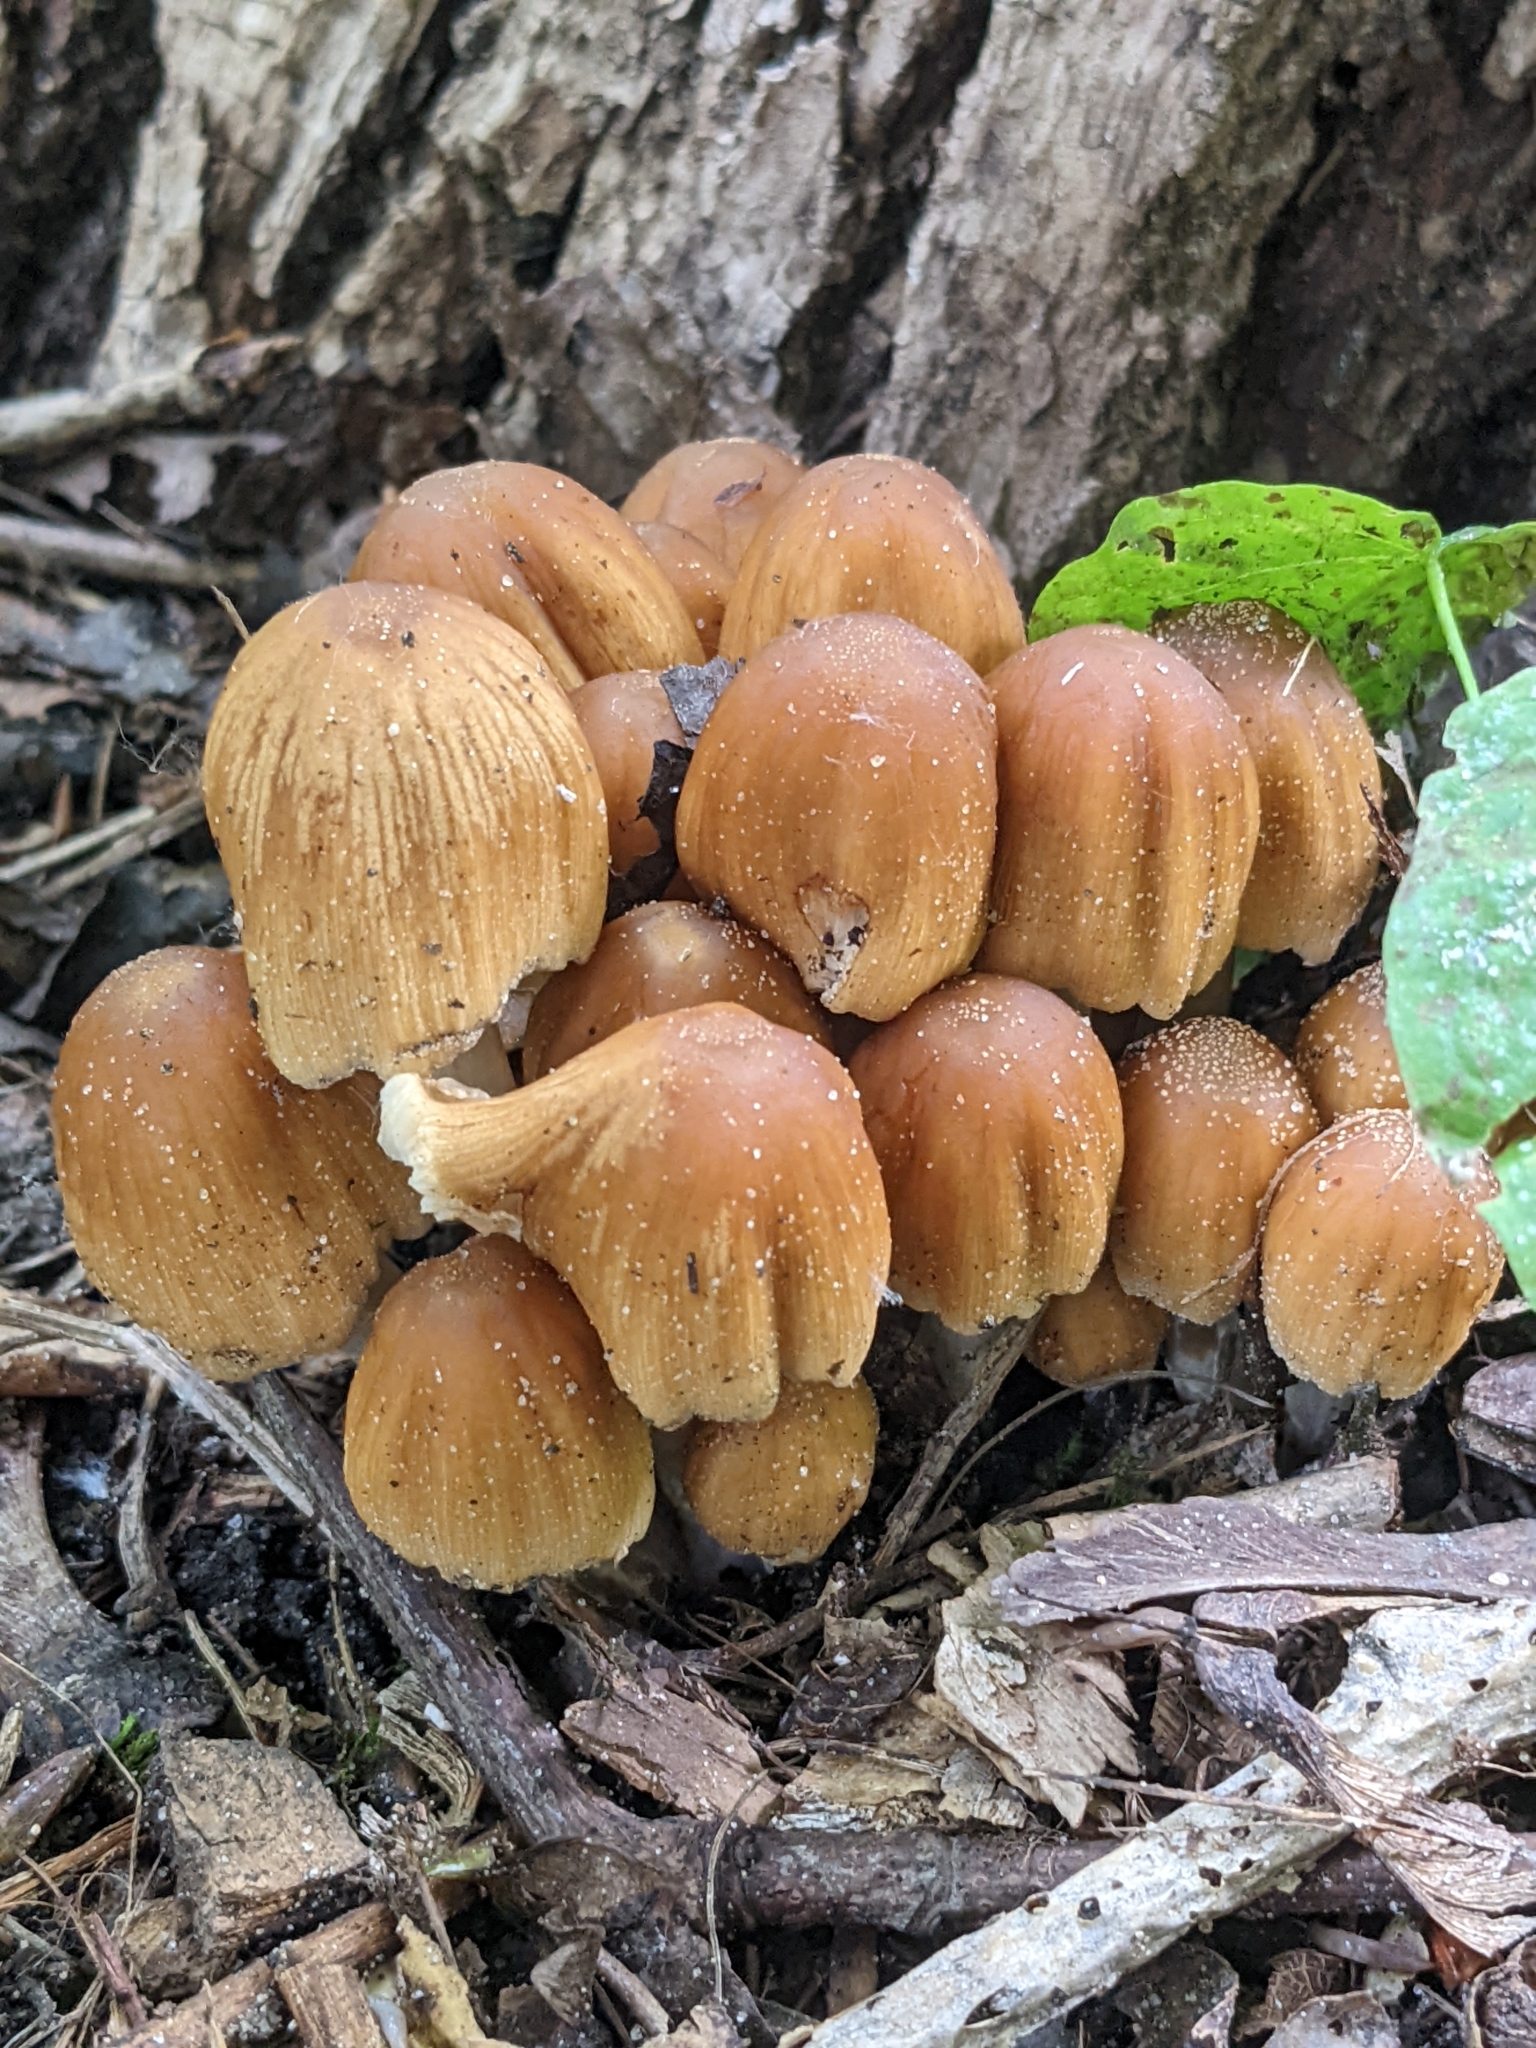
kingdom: Fungi
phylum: Basidiomycota
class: Agaricomycetes
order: Agaricales
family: Psathyrellaceae
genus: Coprinellus
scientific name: Coprinellus micaceus
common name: Glistening ink-cap
